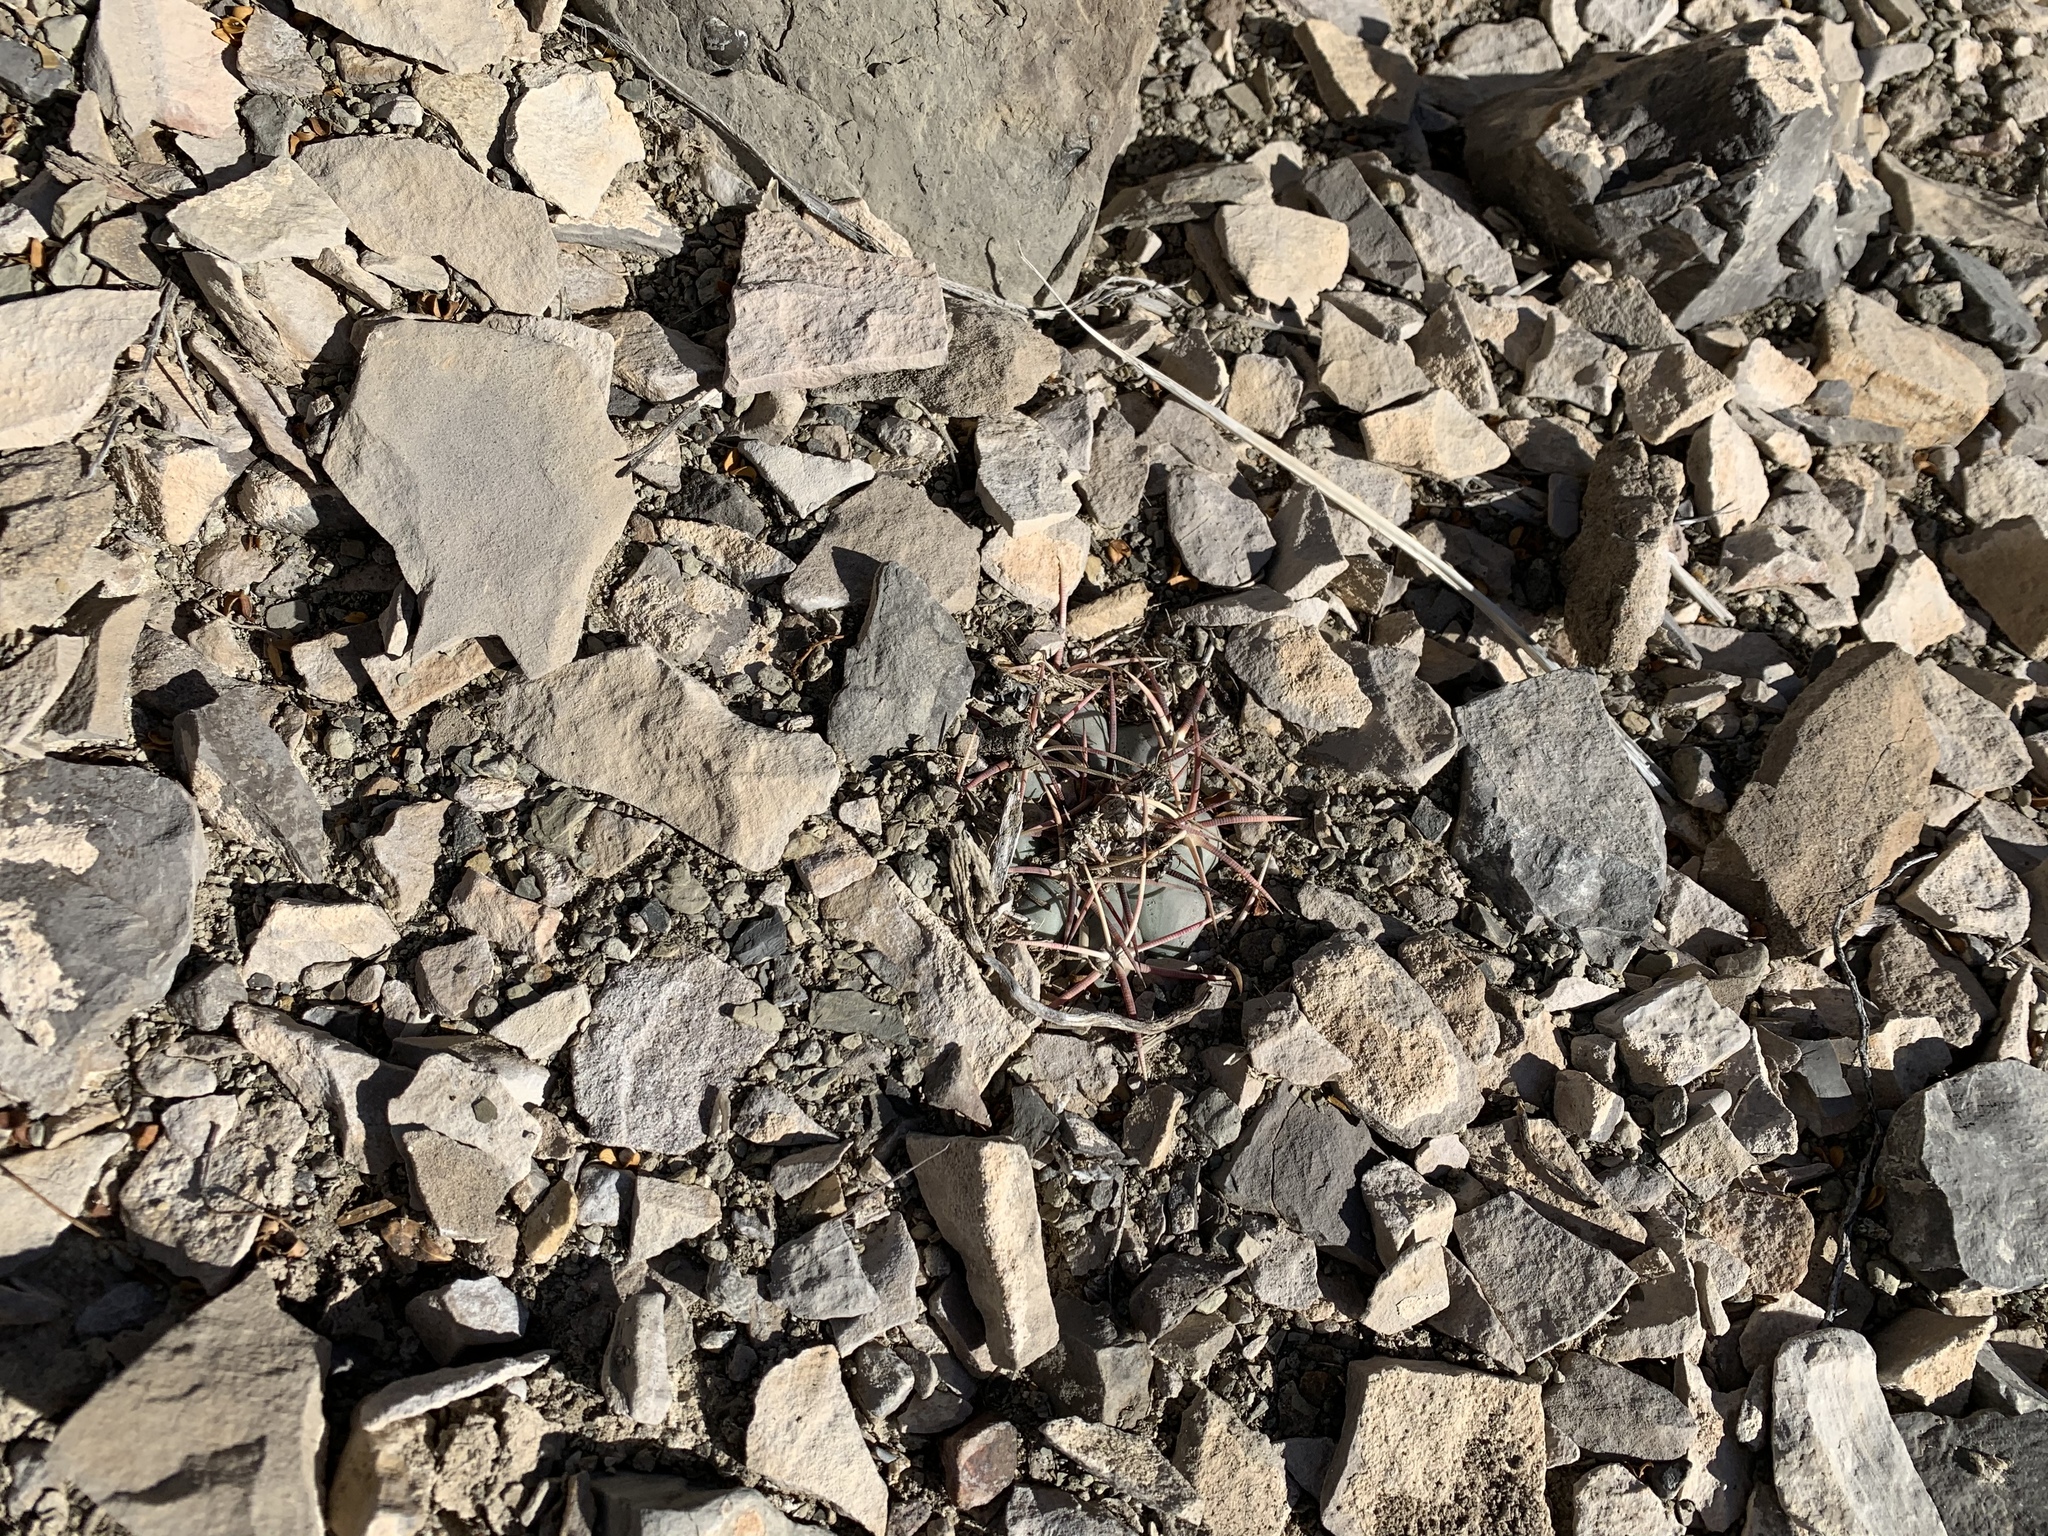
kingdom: Plantae
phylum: Tracheophyta
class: Magnoliopsida
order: Caryophyllales
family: Cactaceae
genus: Echinocactus
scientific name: Echinocactus horizonthalonius
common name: Devilshead
